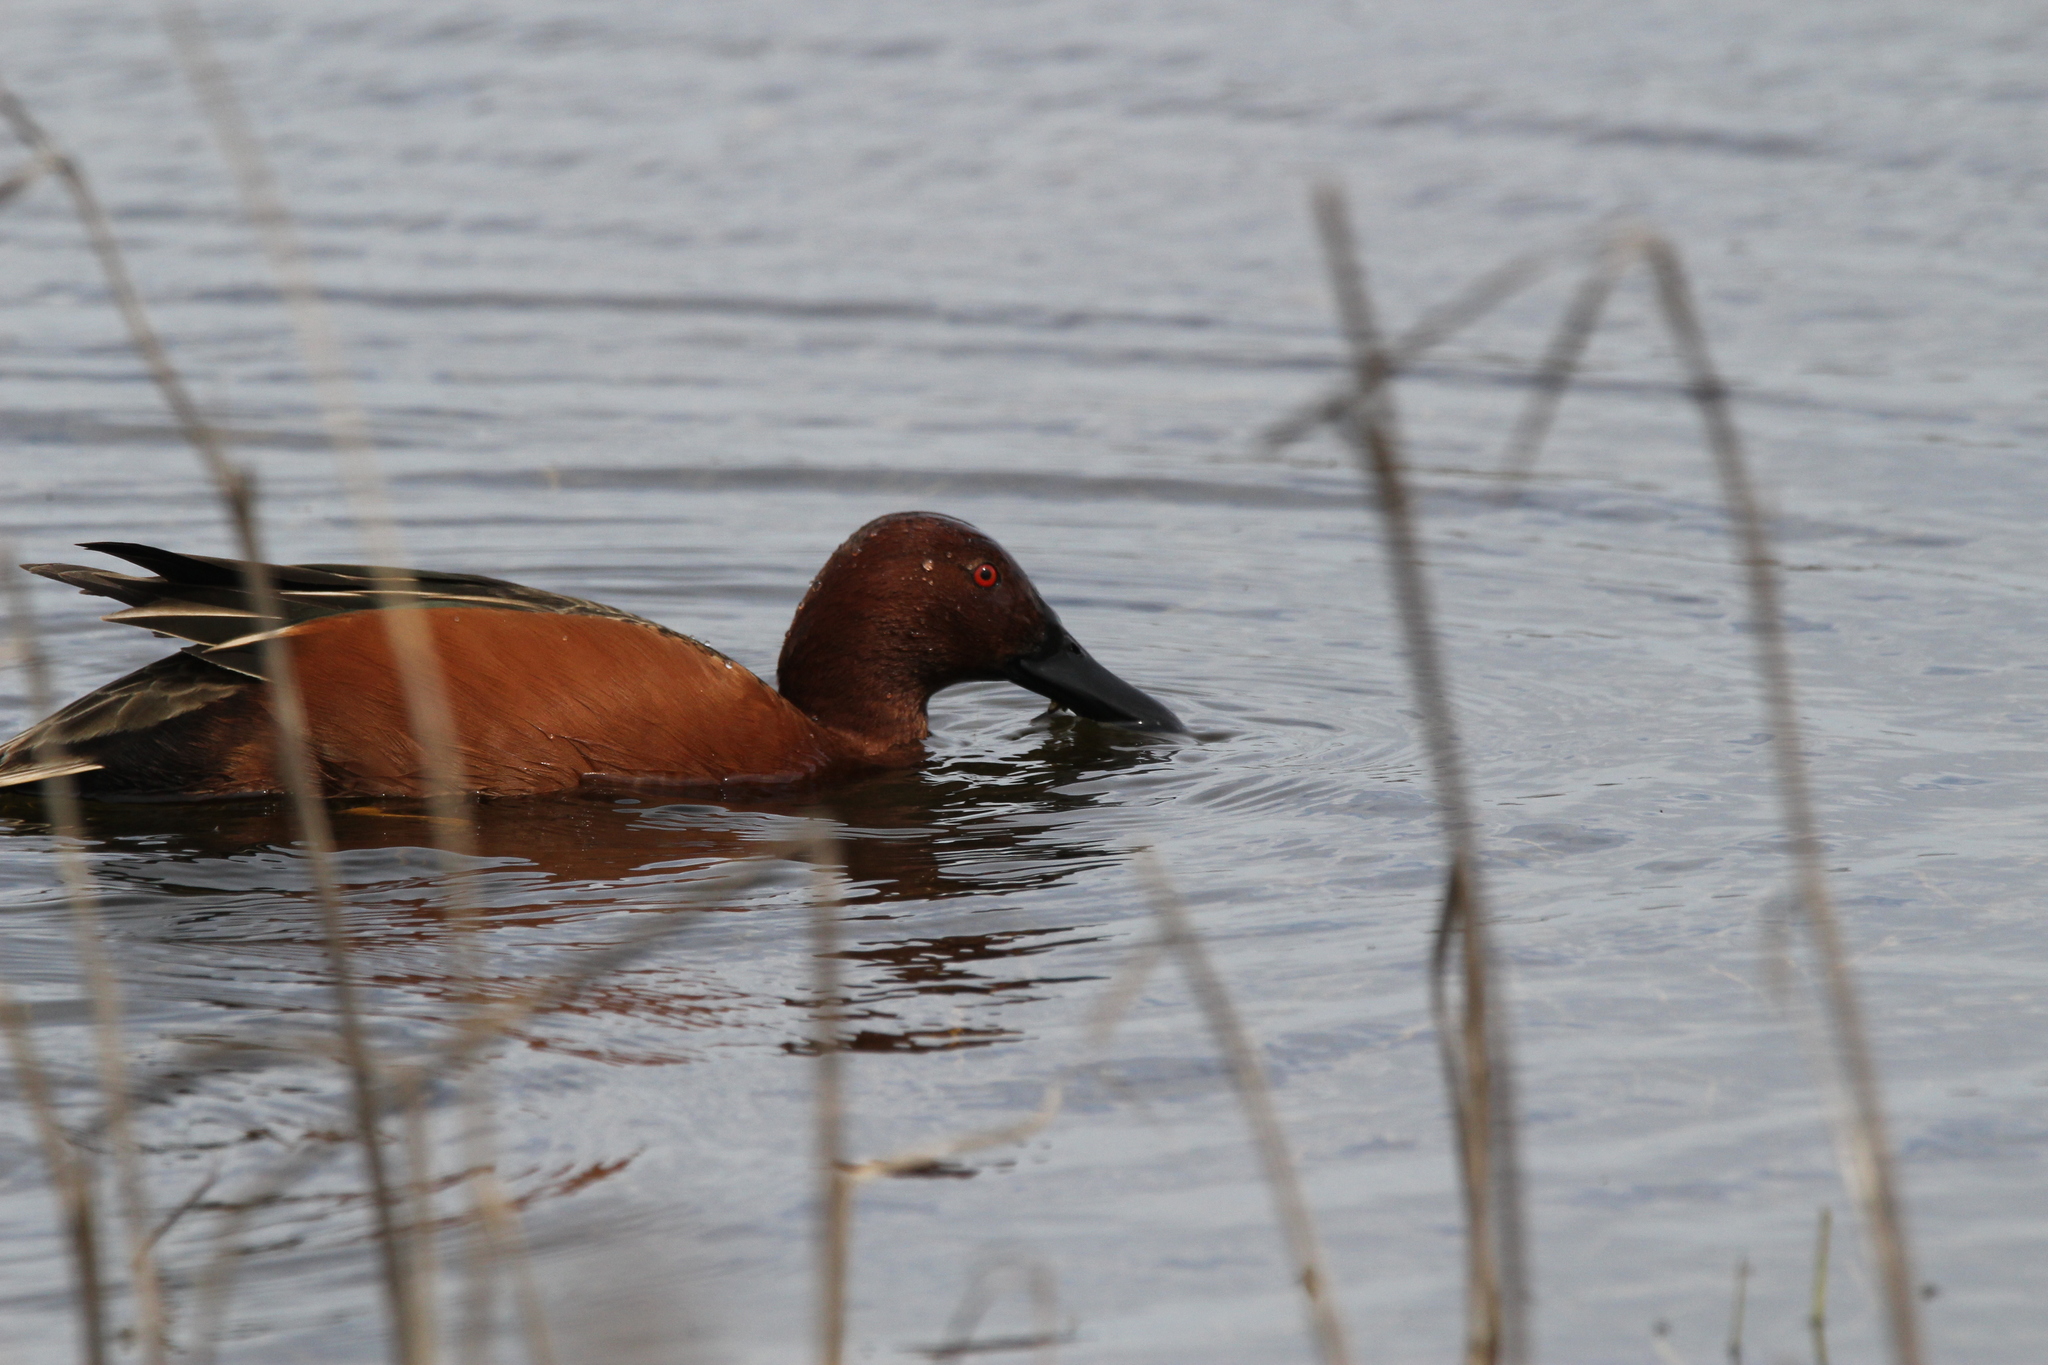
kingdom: Animalia
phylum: Chordata
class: Aves
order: Anseriformes
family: Anatidae
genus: Spatula
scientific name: Spatula cyanoptera
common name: Cinnamon teal
